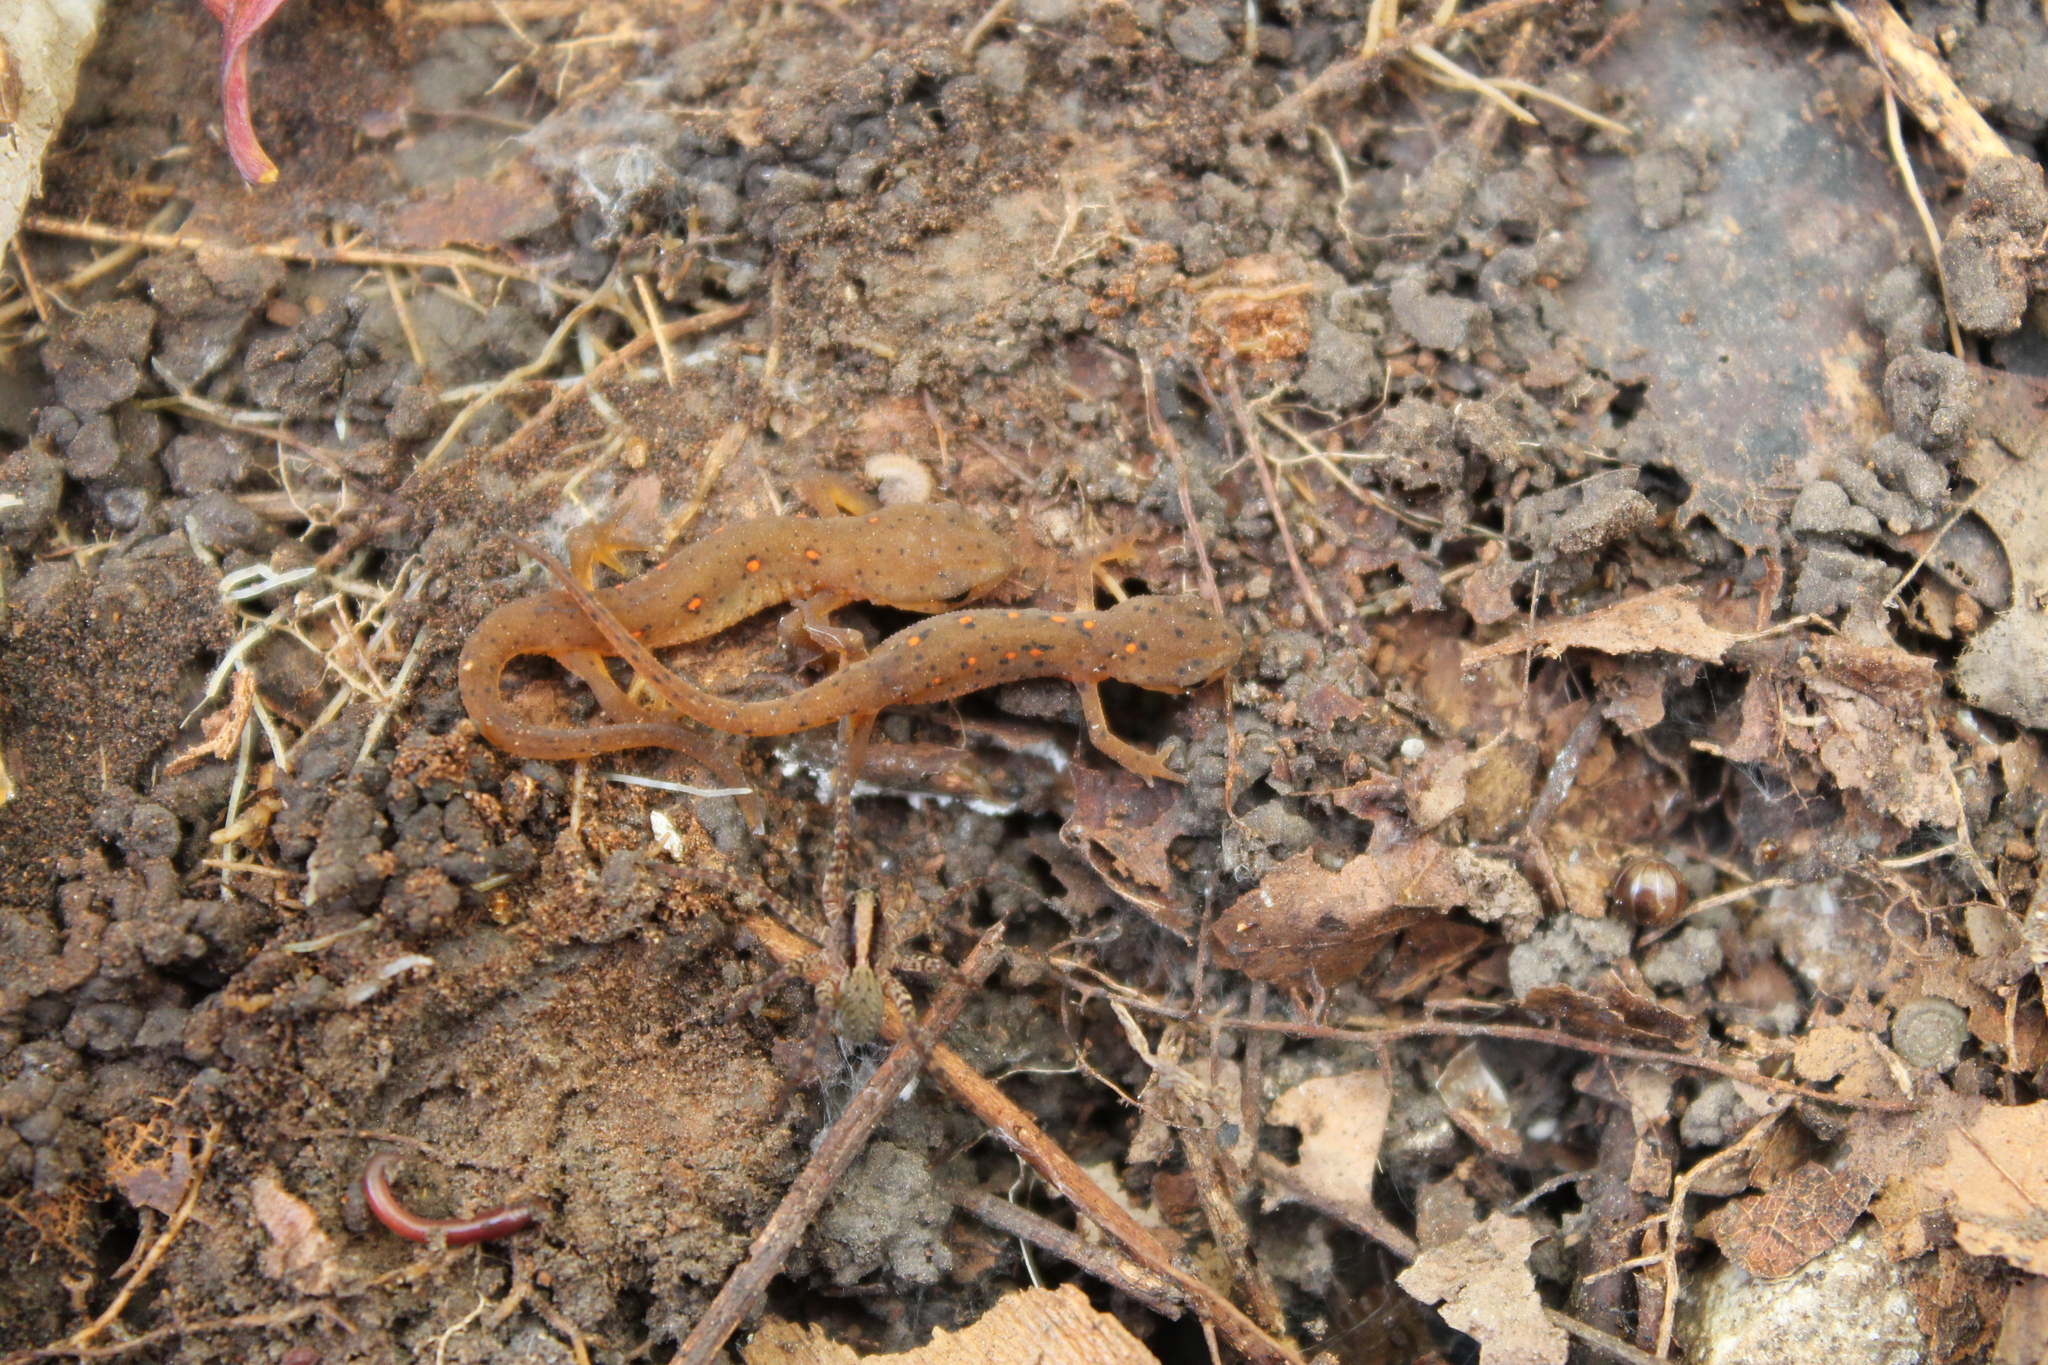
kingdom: Animalia
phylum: Chordata
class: Amphibia
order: Caudata
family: Salamandridae
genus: Notophthalmus
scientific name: Notophthalmus viridescens
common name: Eastern newt
